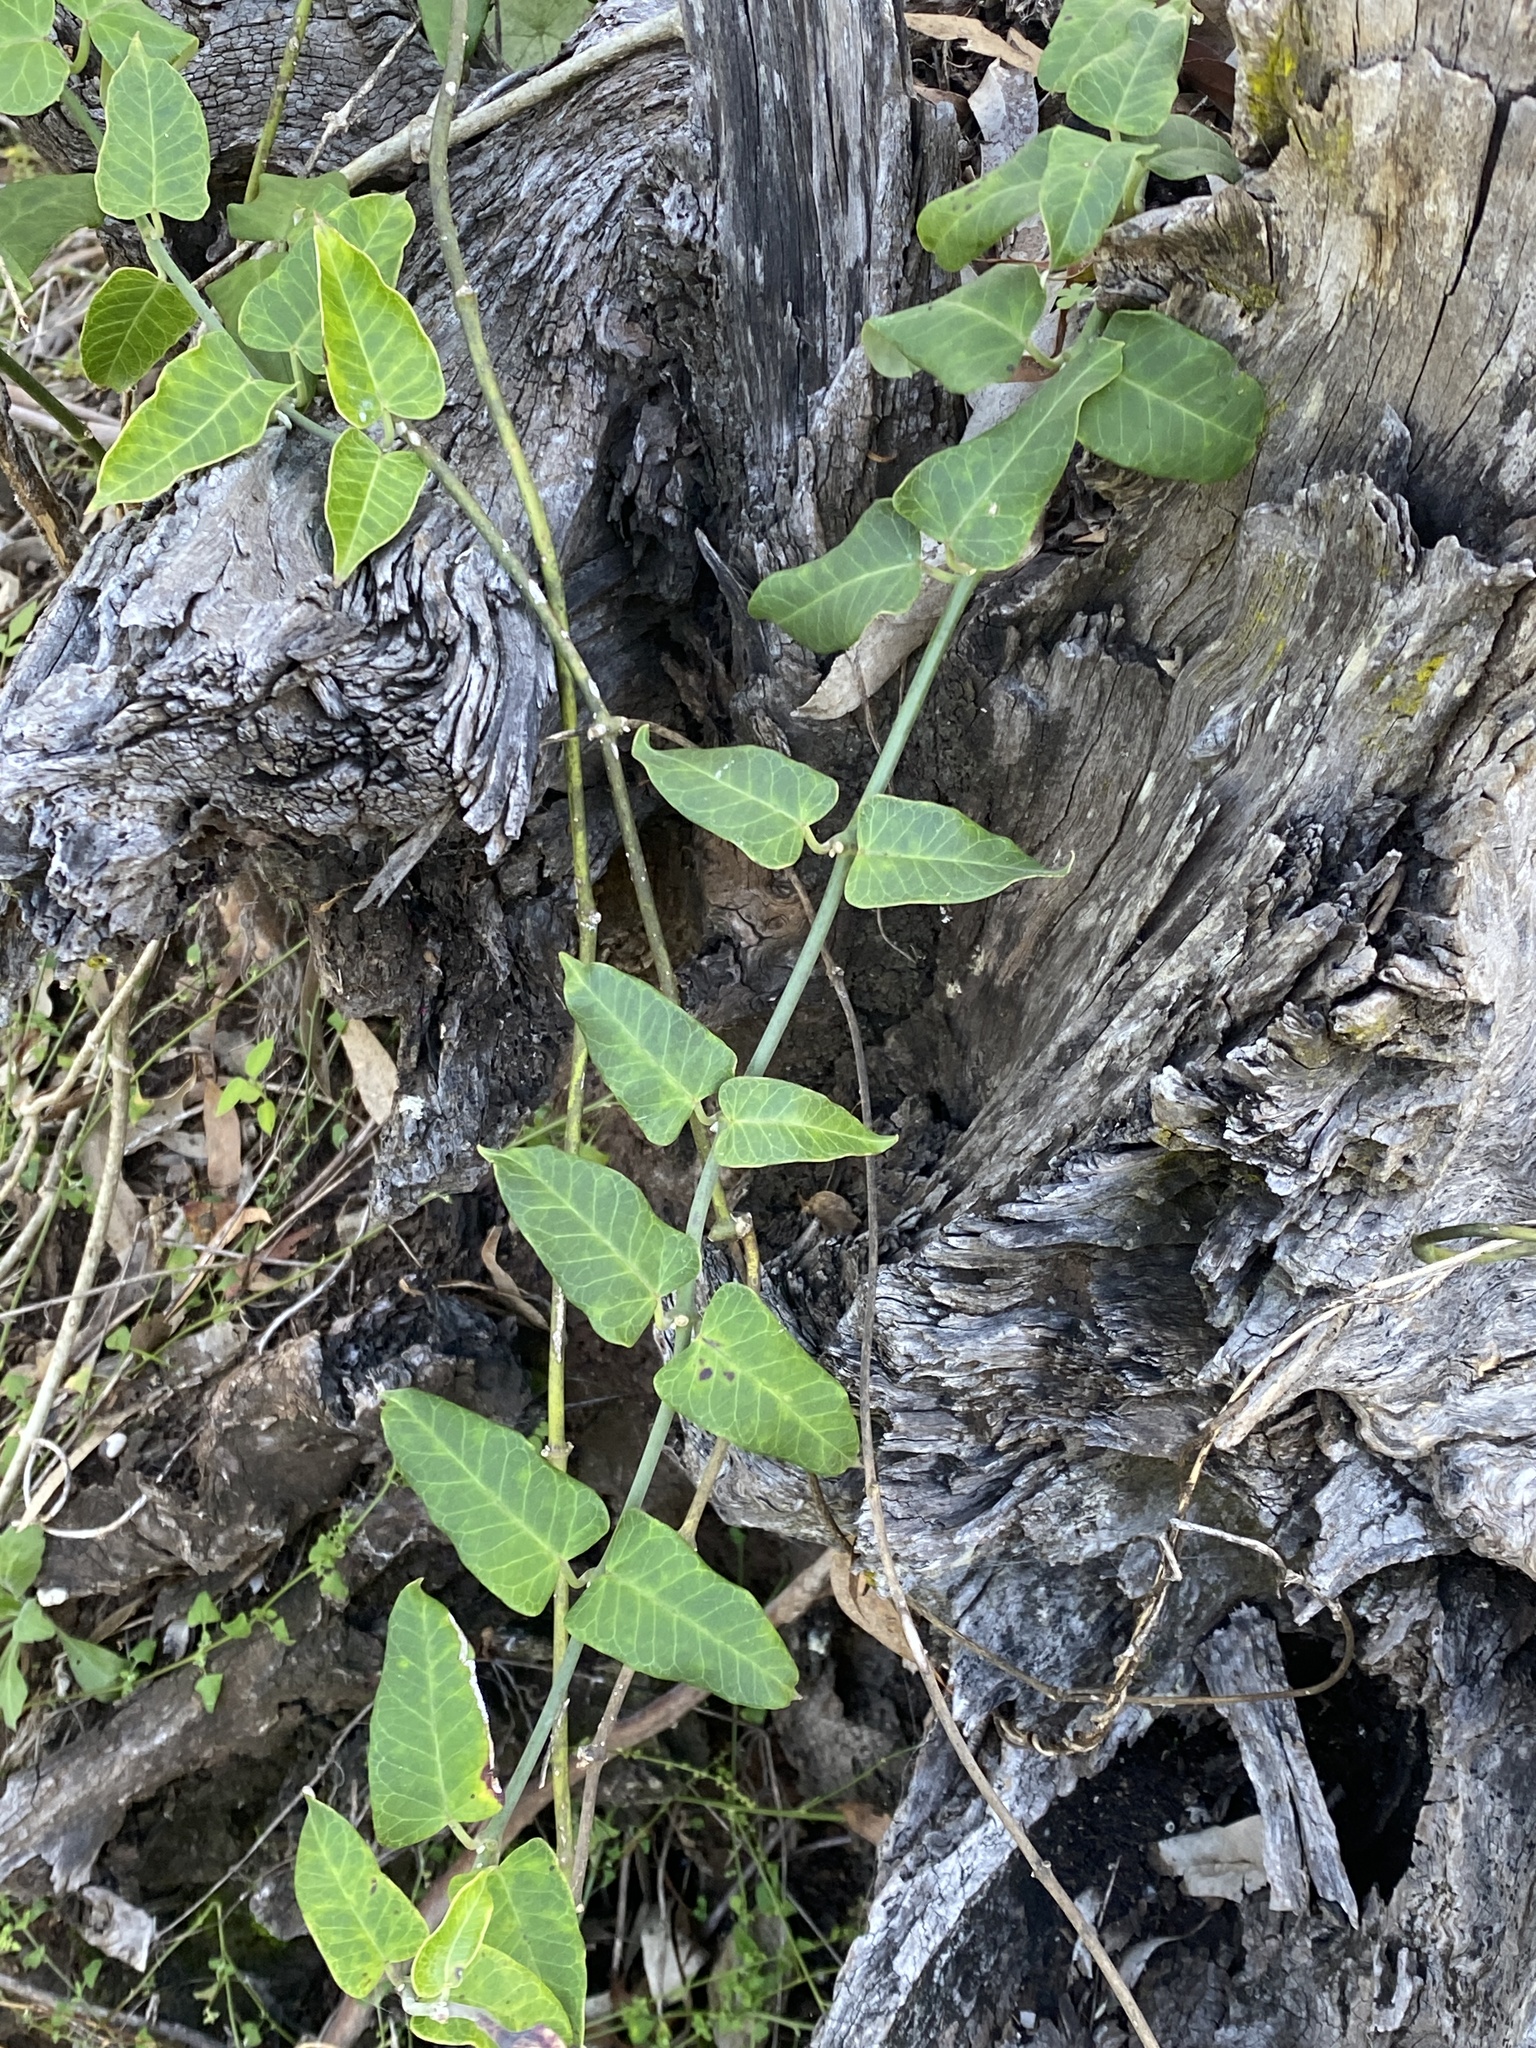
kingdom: Plantae
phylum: Tracheophyta
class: Magnoliopsida
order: Gentianales
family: Apocynaceae
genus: Araujia
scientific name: Araujia sericifera
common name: White bladderflower
